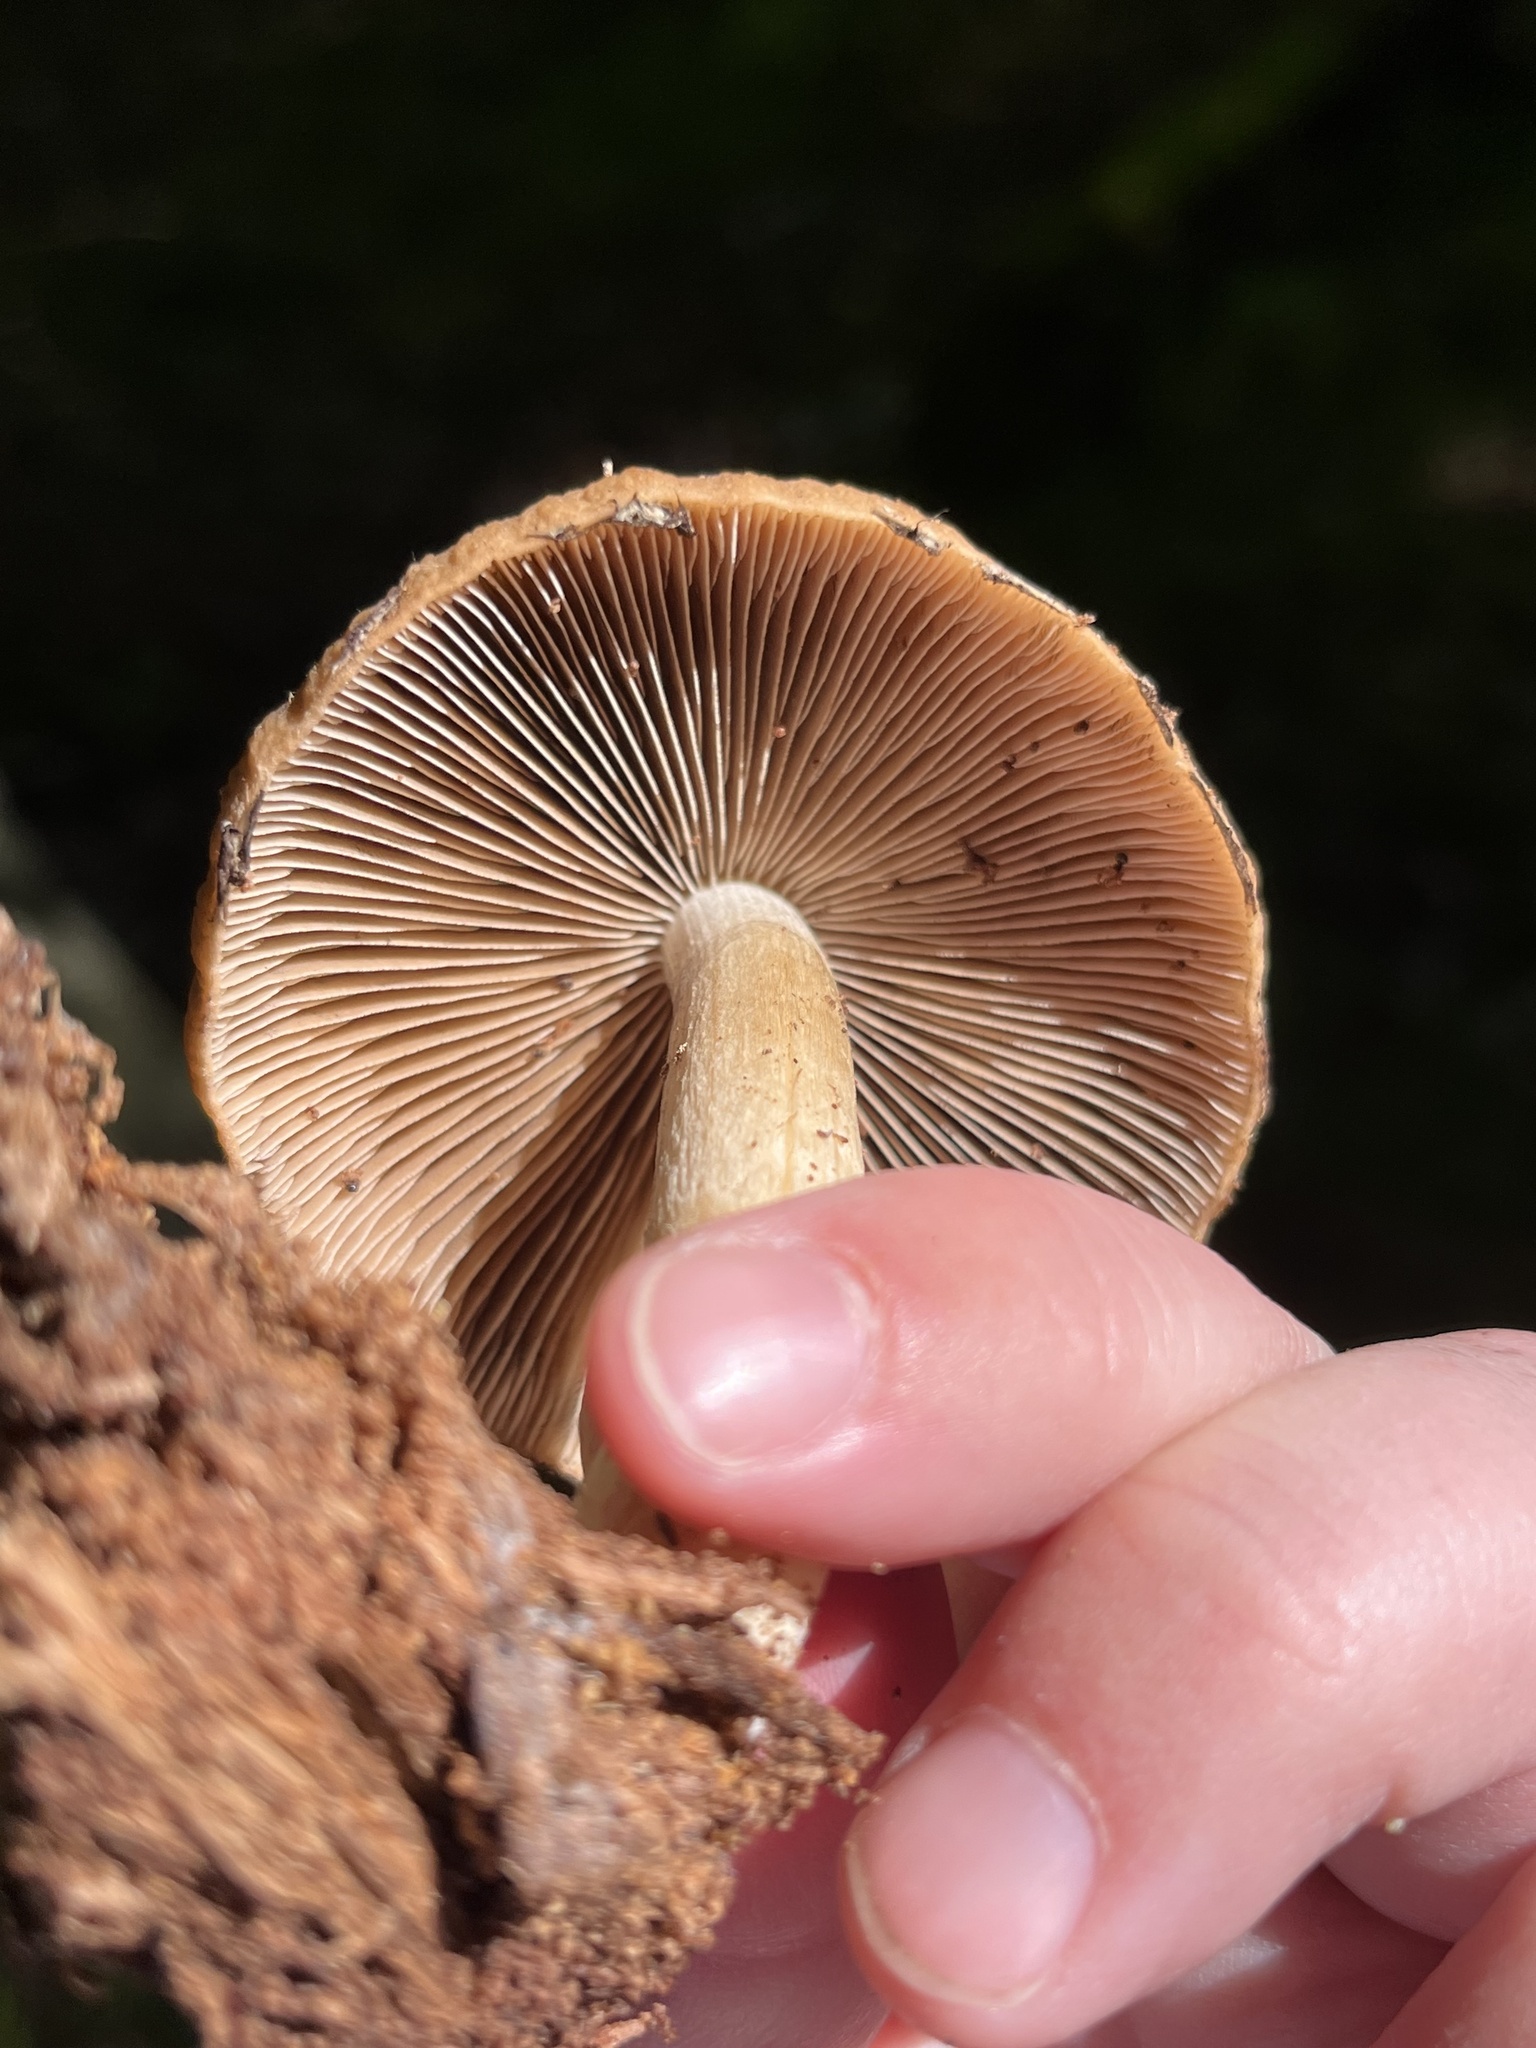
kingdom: Fungi
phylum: Basidiomycota
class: Agaricomycetes
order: Agaricales
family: Psathyrellaceae
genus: Typhrasa
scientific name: Typhrasa gossypina
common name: Wrinkled psathyrella
